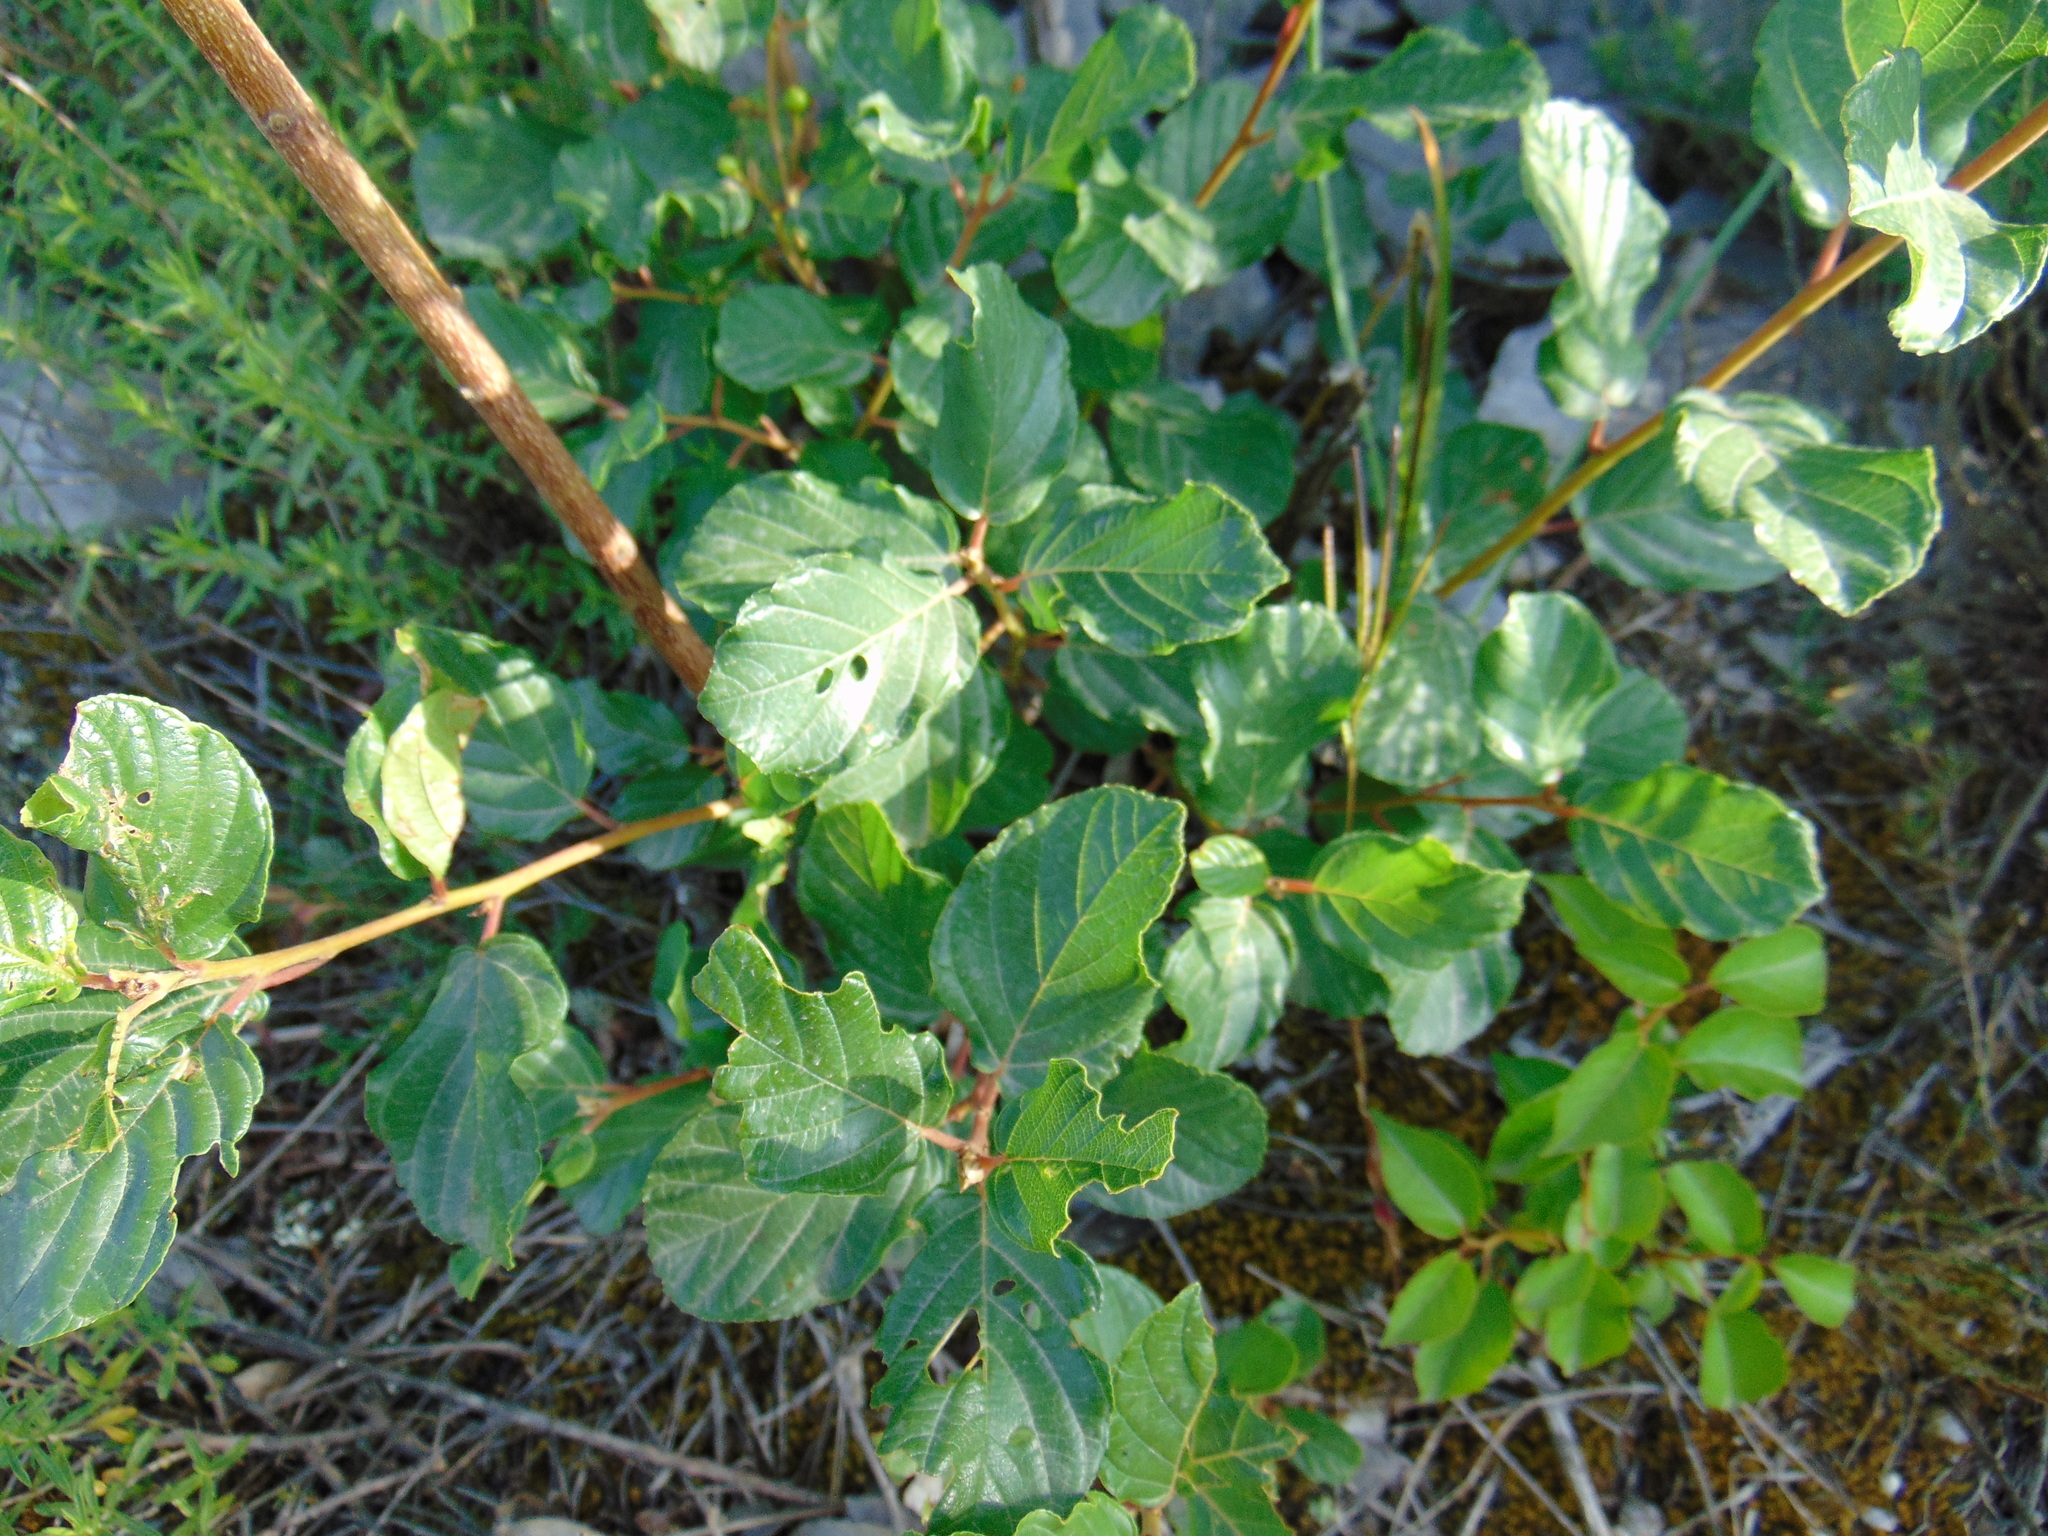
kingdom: Plantae
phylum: Tracheophyta
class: Magnoliopsida
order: Rosales
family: Rhamnaceae
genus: Frangula
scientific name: Frangula rupestris
